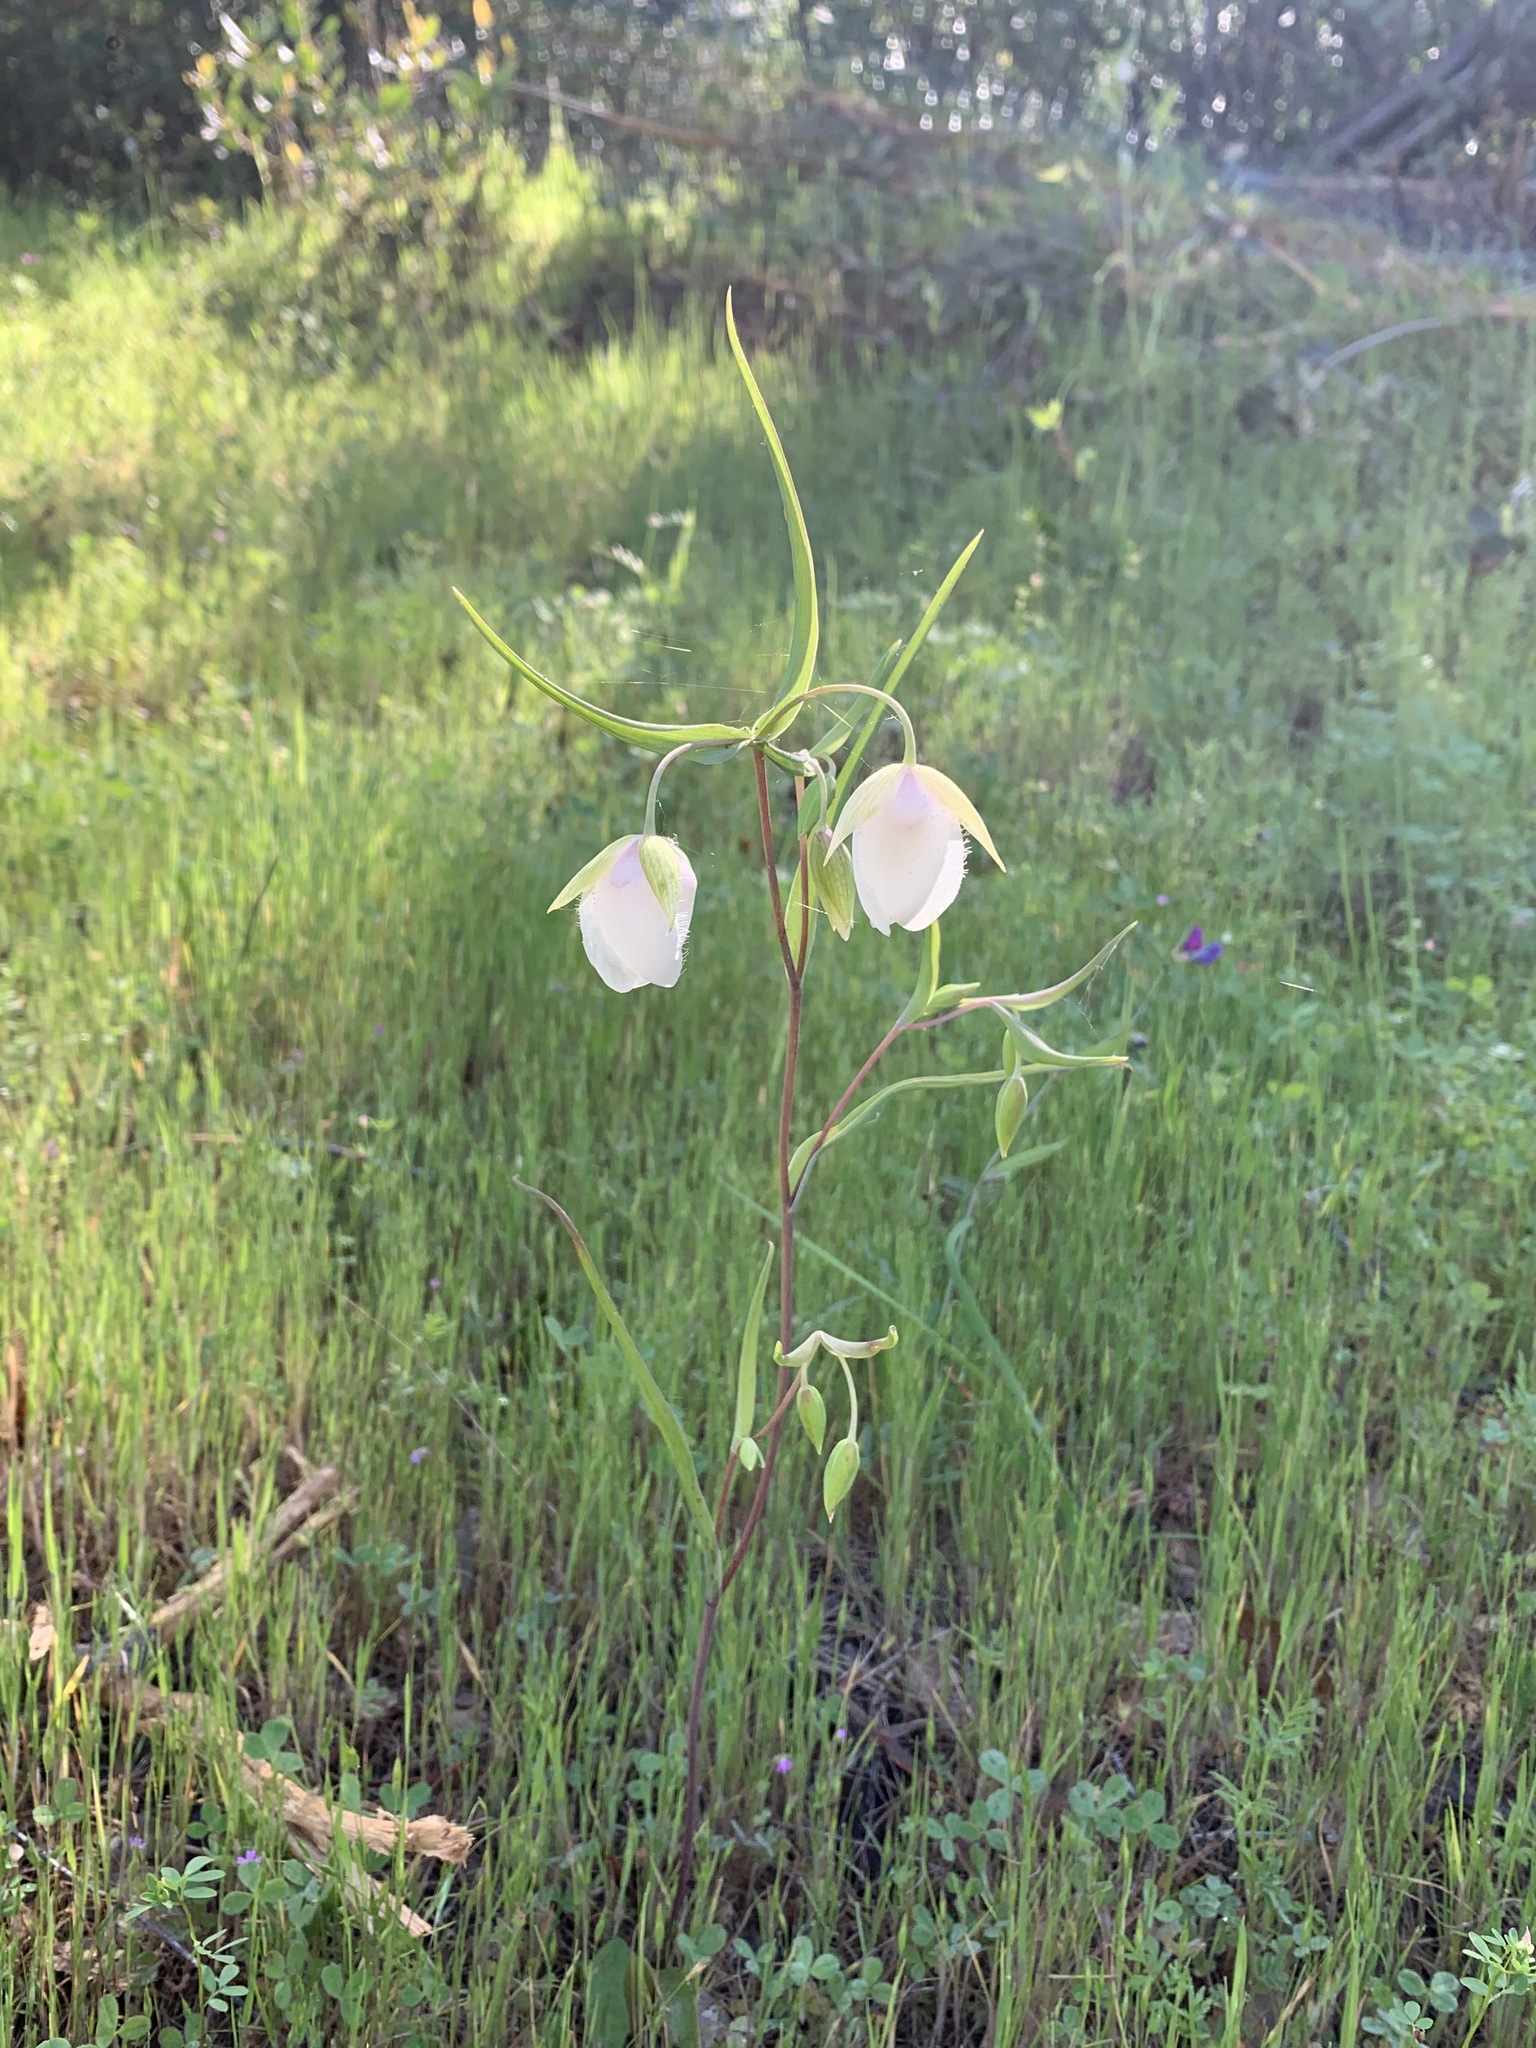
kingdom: Plantae
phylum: Tracheophyta
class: Liliopsida
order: Liliales
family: Liliaceae
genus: Calochortus
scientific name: Calochortus albus
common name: Fairy-lantern
